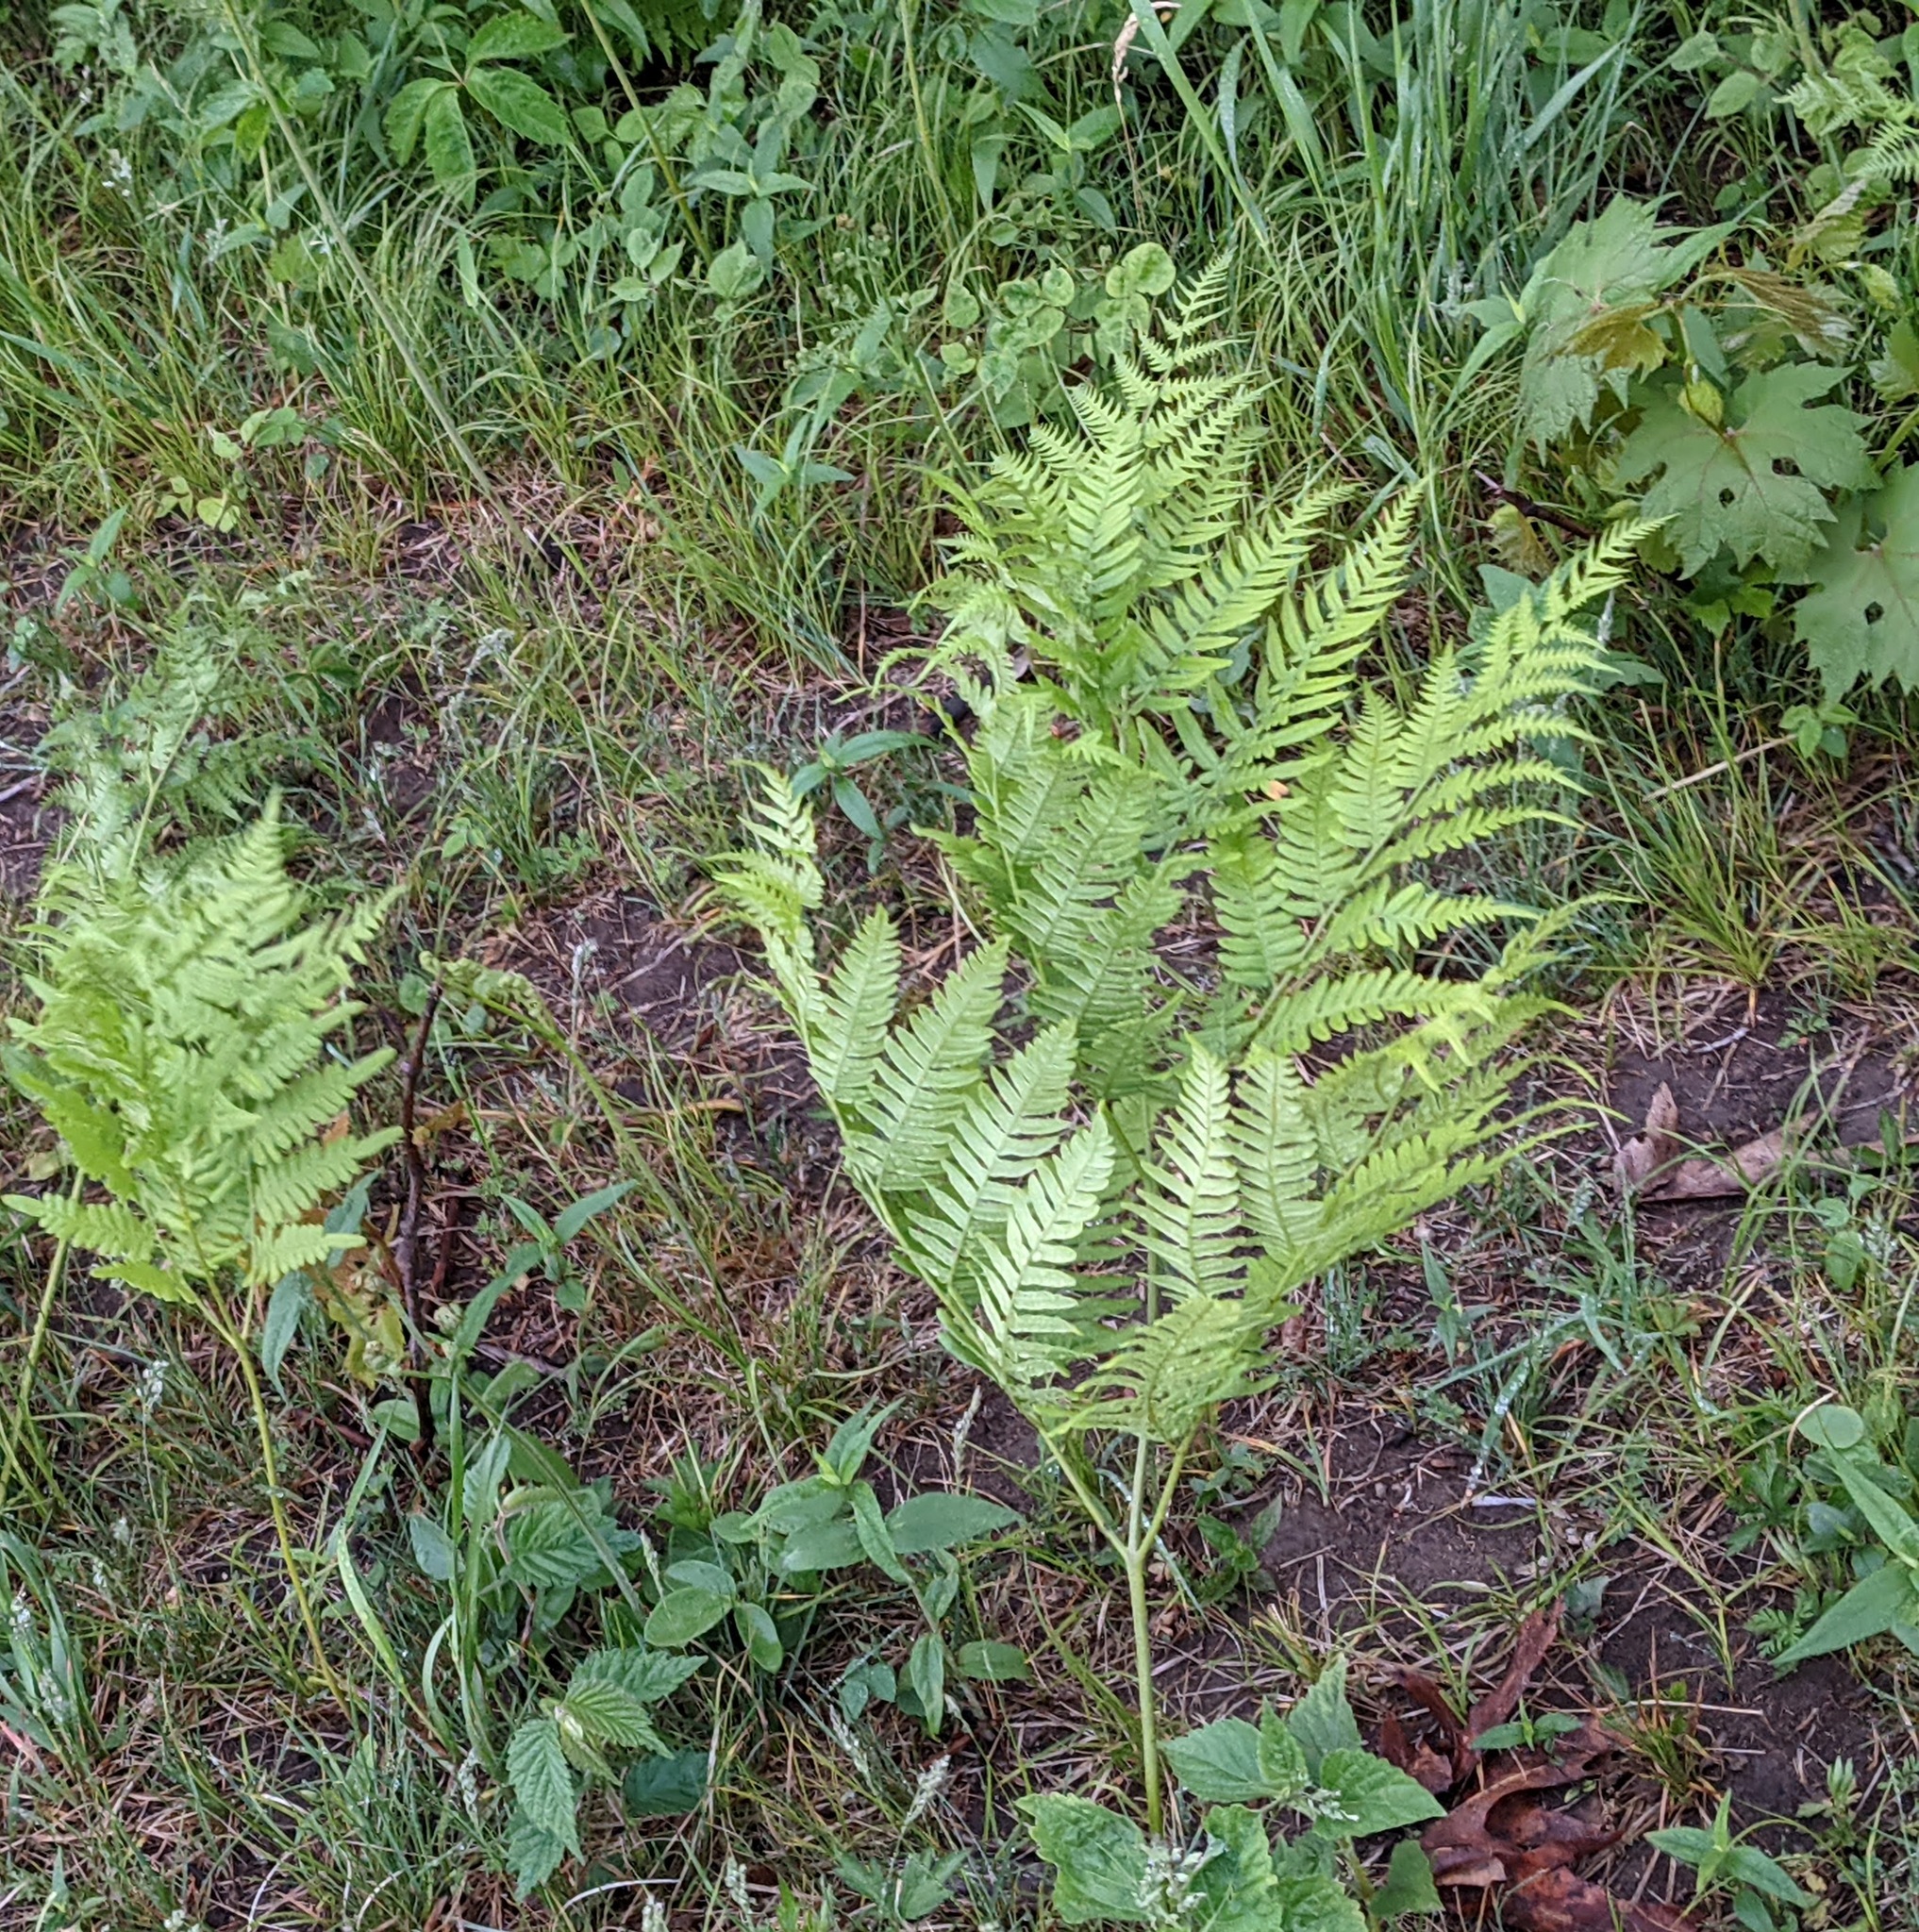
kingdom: Plantae
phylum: Tracheophyta
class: Polypodiopsida
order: Polypodiales
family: Dennstaedtiaceae
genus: Pteridium
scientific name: Pteridium aquilinum
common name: Bracken
